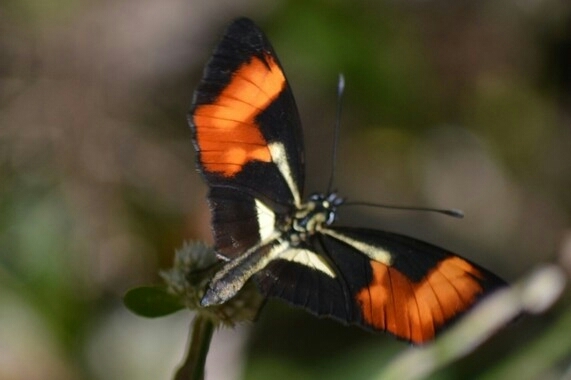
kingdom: Animalia
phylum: Arthropoda
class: Insecta
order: Lepidoptera
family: Nymphalidae
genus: Eresia
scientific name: Eresia lansdorfi
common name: Lansdorf's crescent
